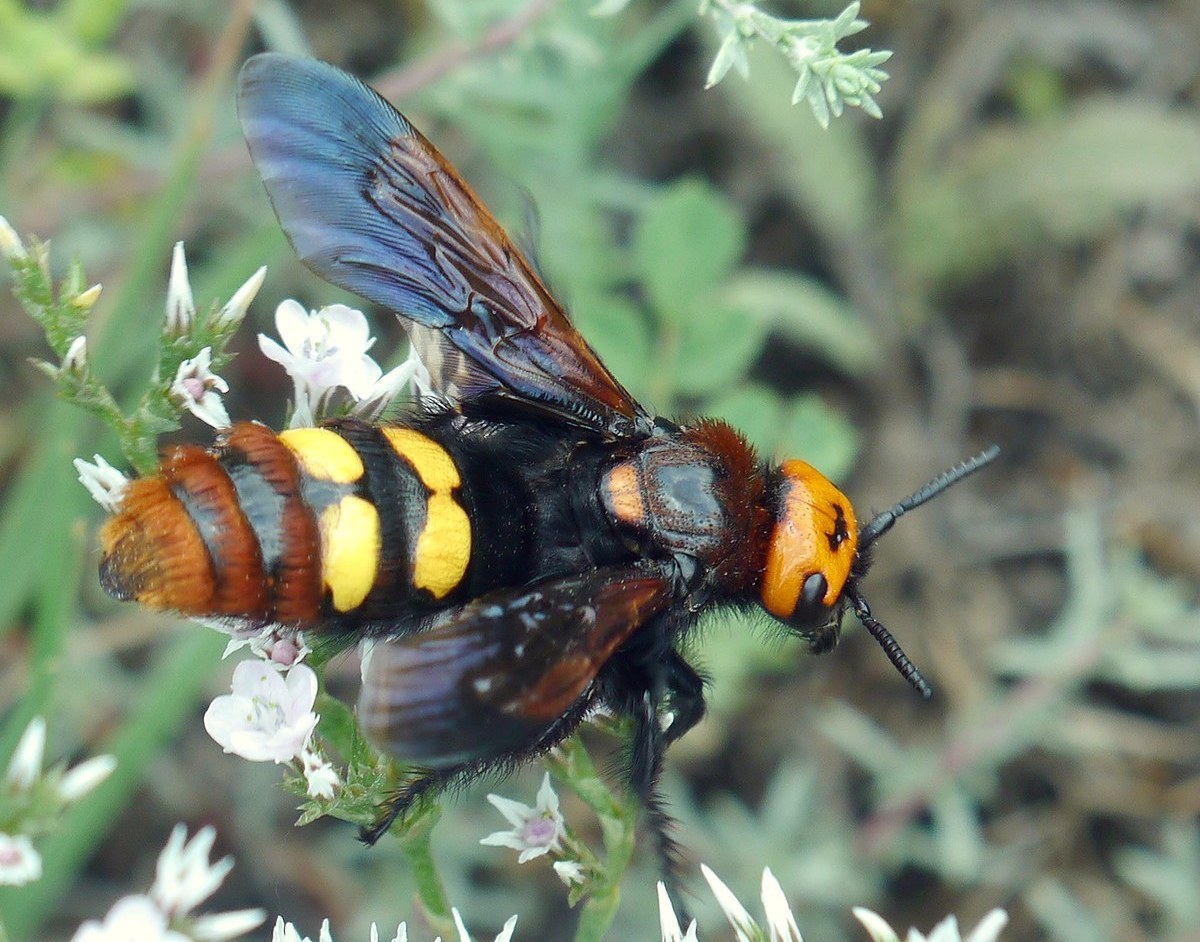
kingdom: Animalia
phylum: Arthropoda
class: Insecta
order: Hymenoptera
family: Scoliidae
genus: Megascolia
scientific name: Megascolia maculata
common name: Mammoth wasp
